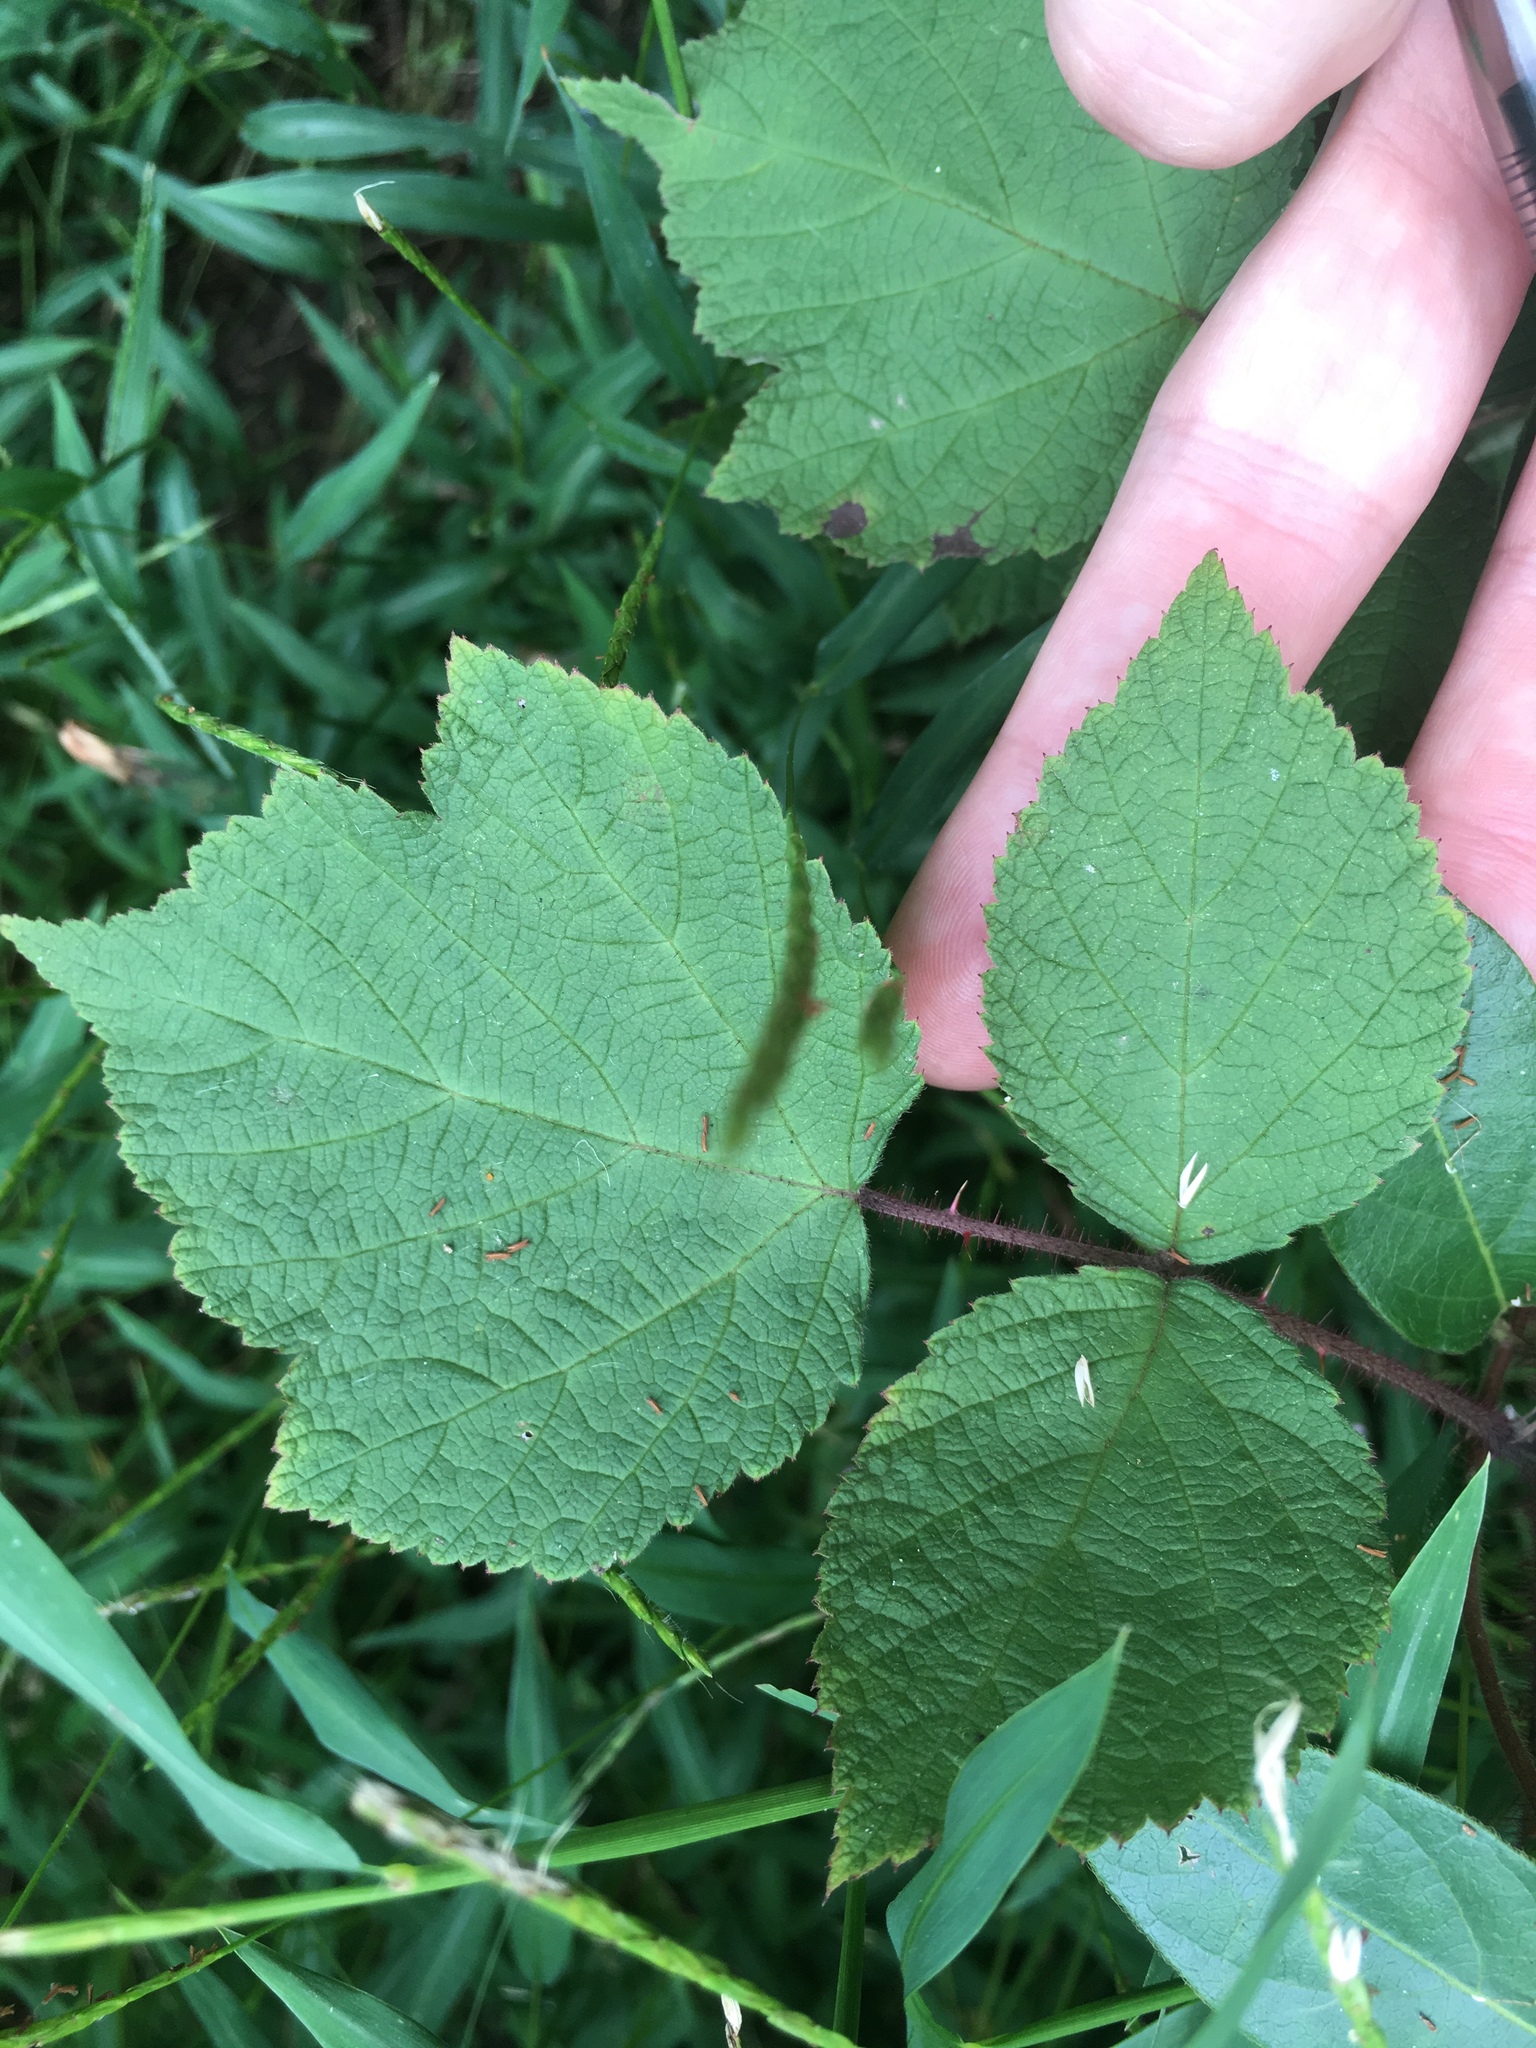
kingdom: Plantae
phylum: Tracheophyta
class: Magnoliopsida
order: Rosales
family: Rosaceae
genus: Rubus
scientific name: Rubus phoenicolasius
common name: Japanese wineberry
